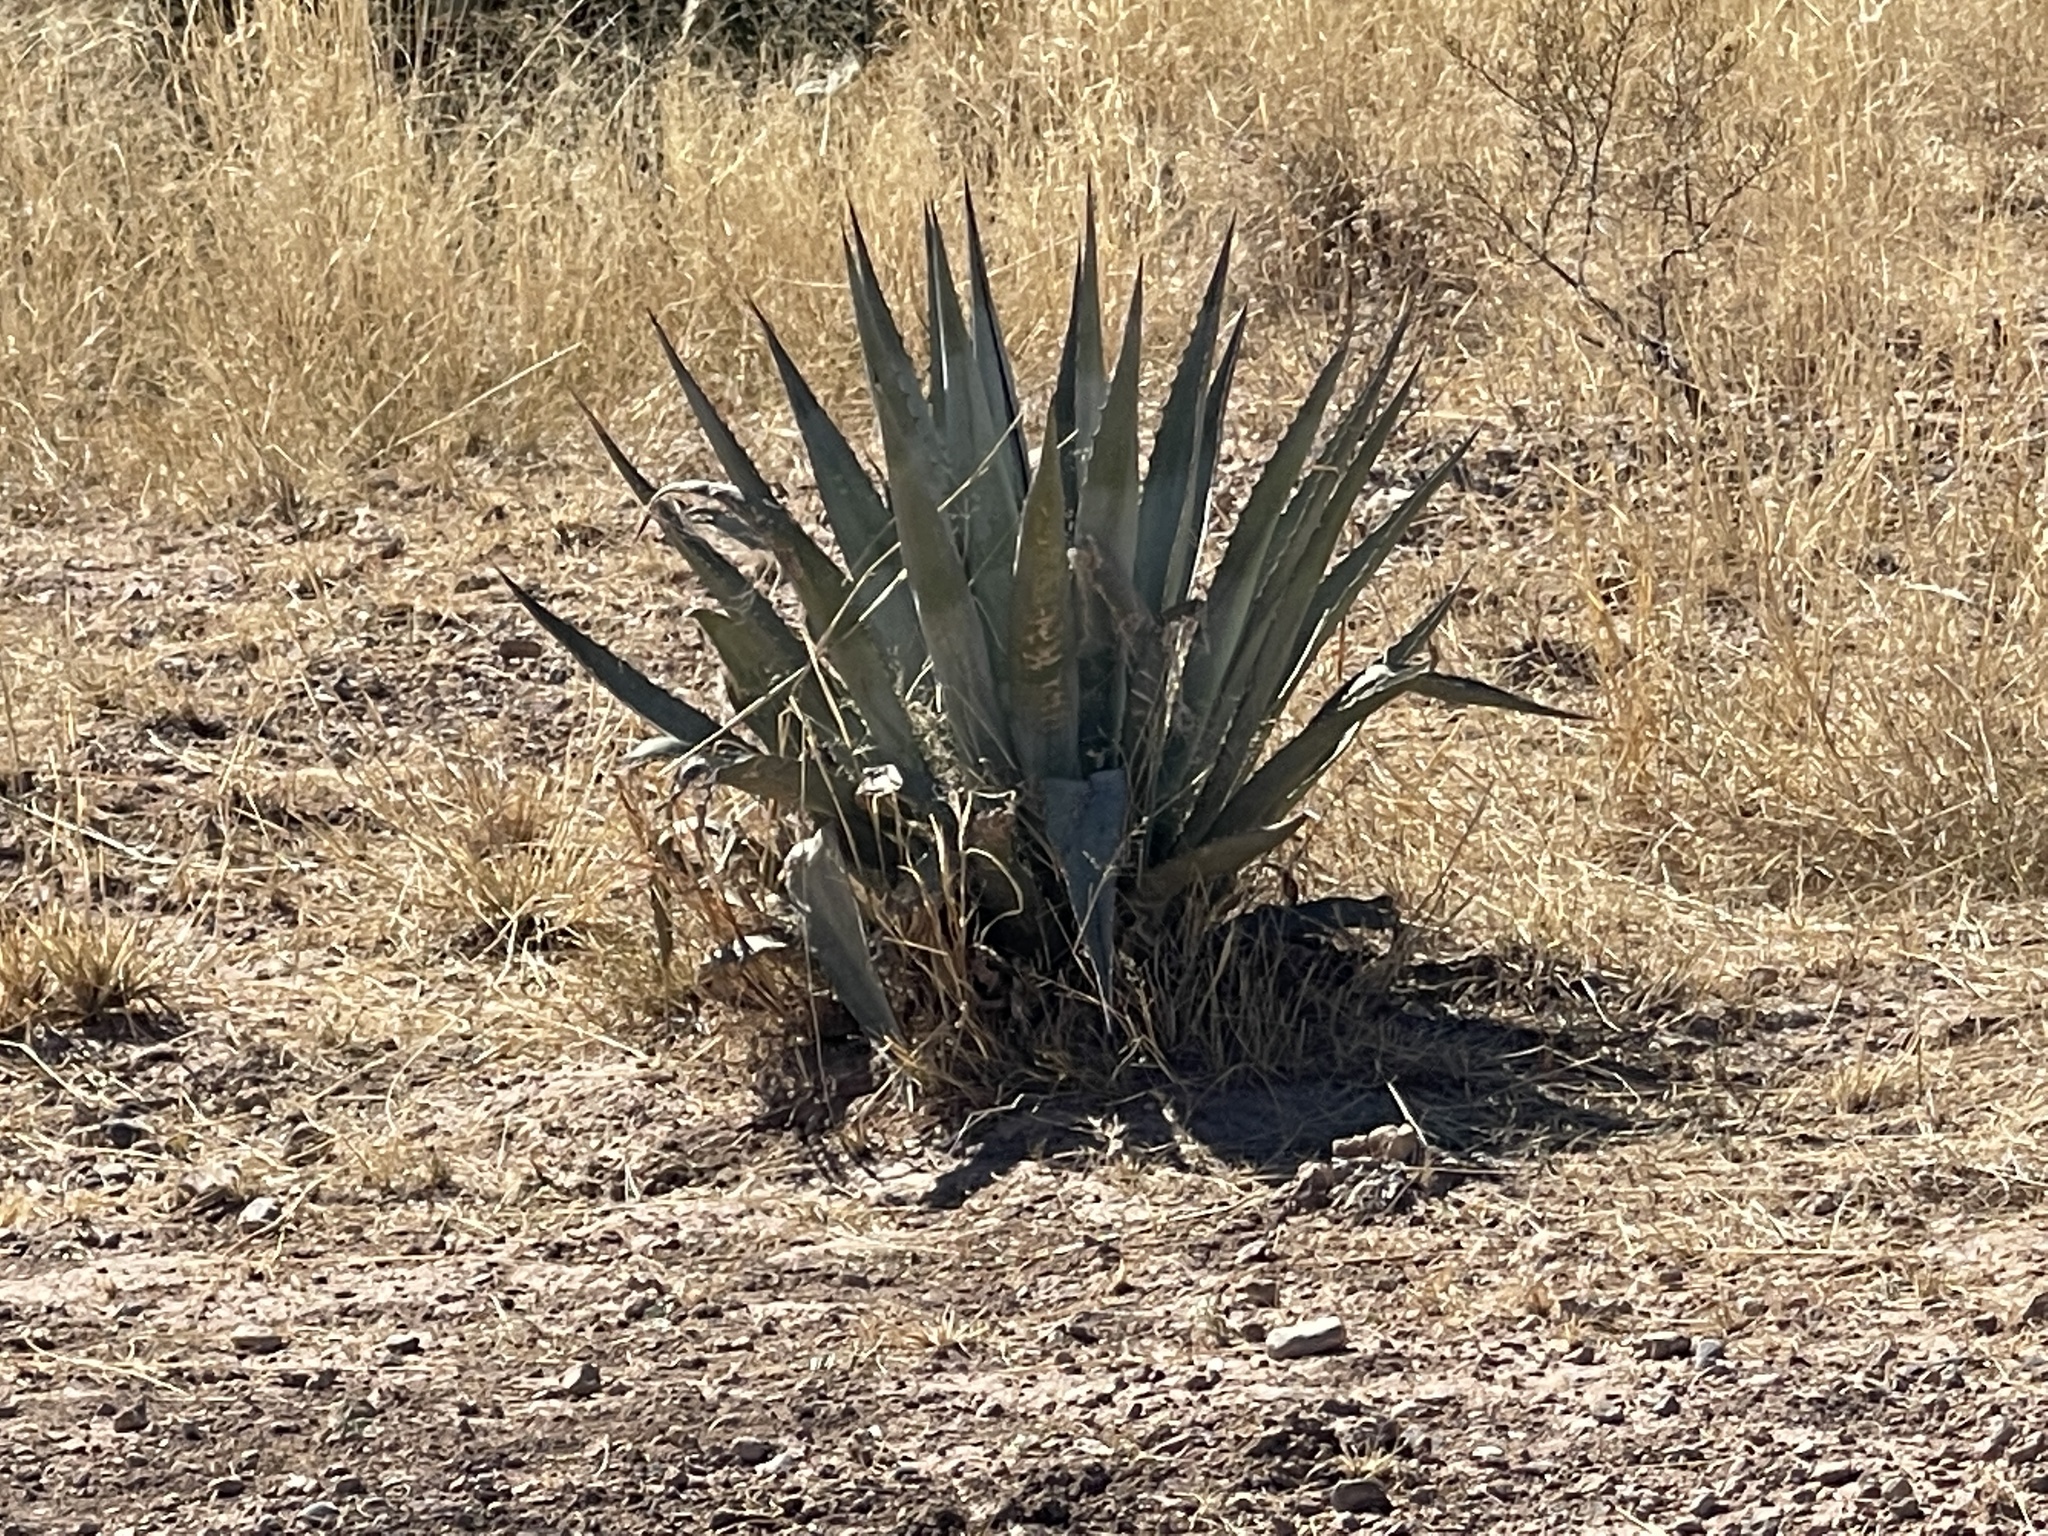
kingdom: Plantae
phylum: Tracheophyta
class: Liliopsida
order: Asparagales
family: Asparagaceae
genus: Agave
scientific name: Agave palmeri
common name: Palmer agave
